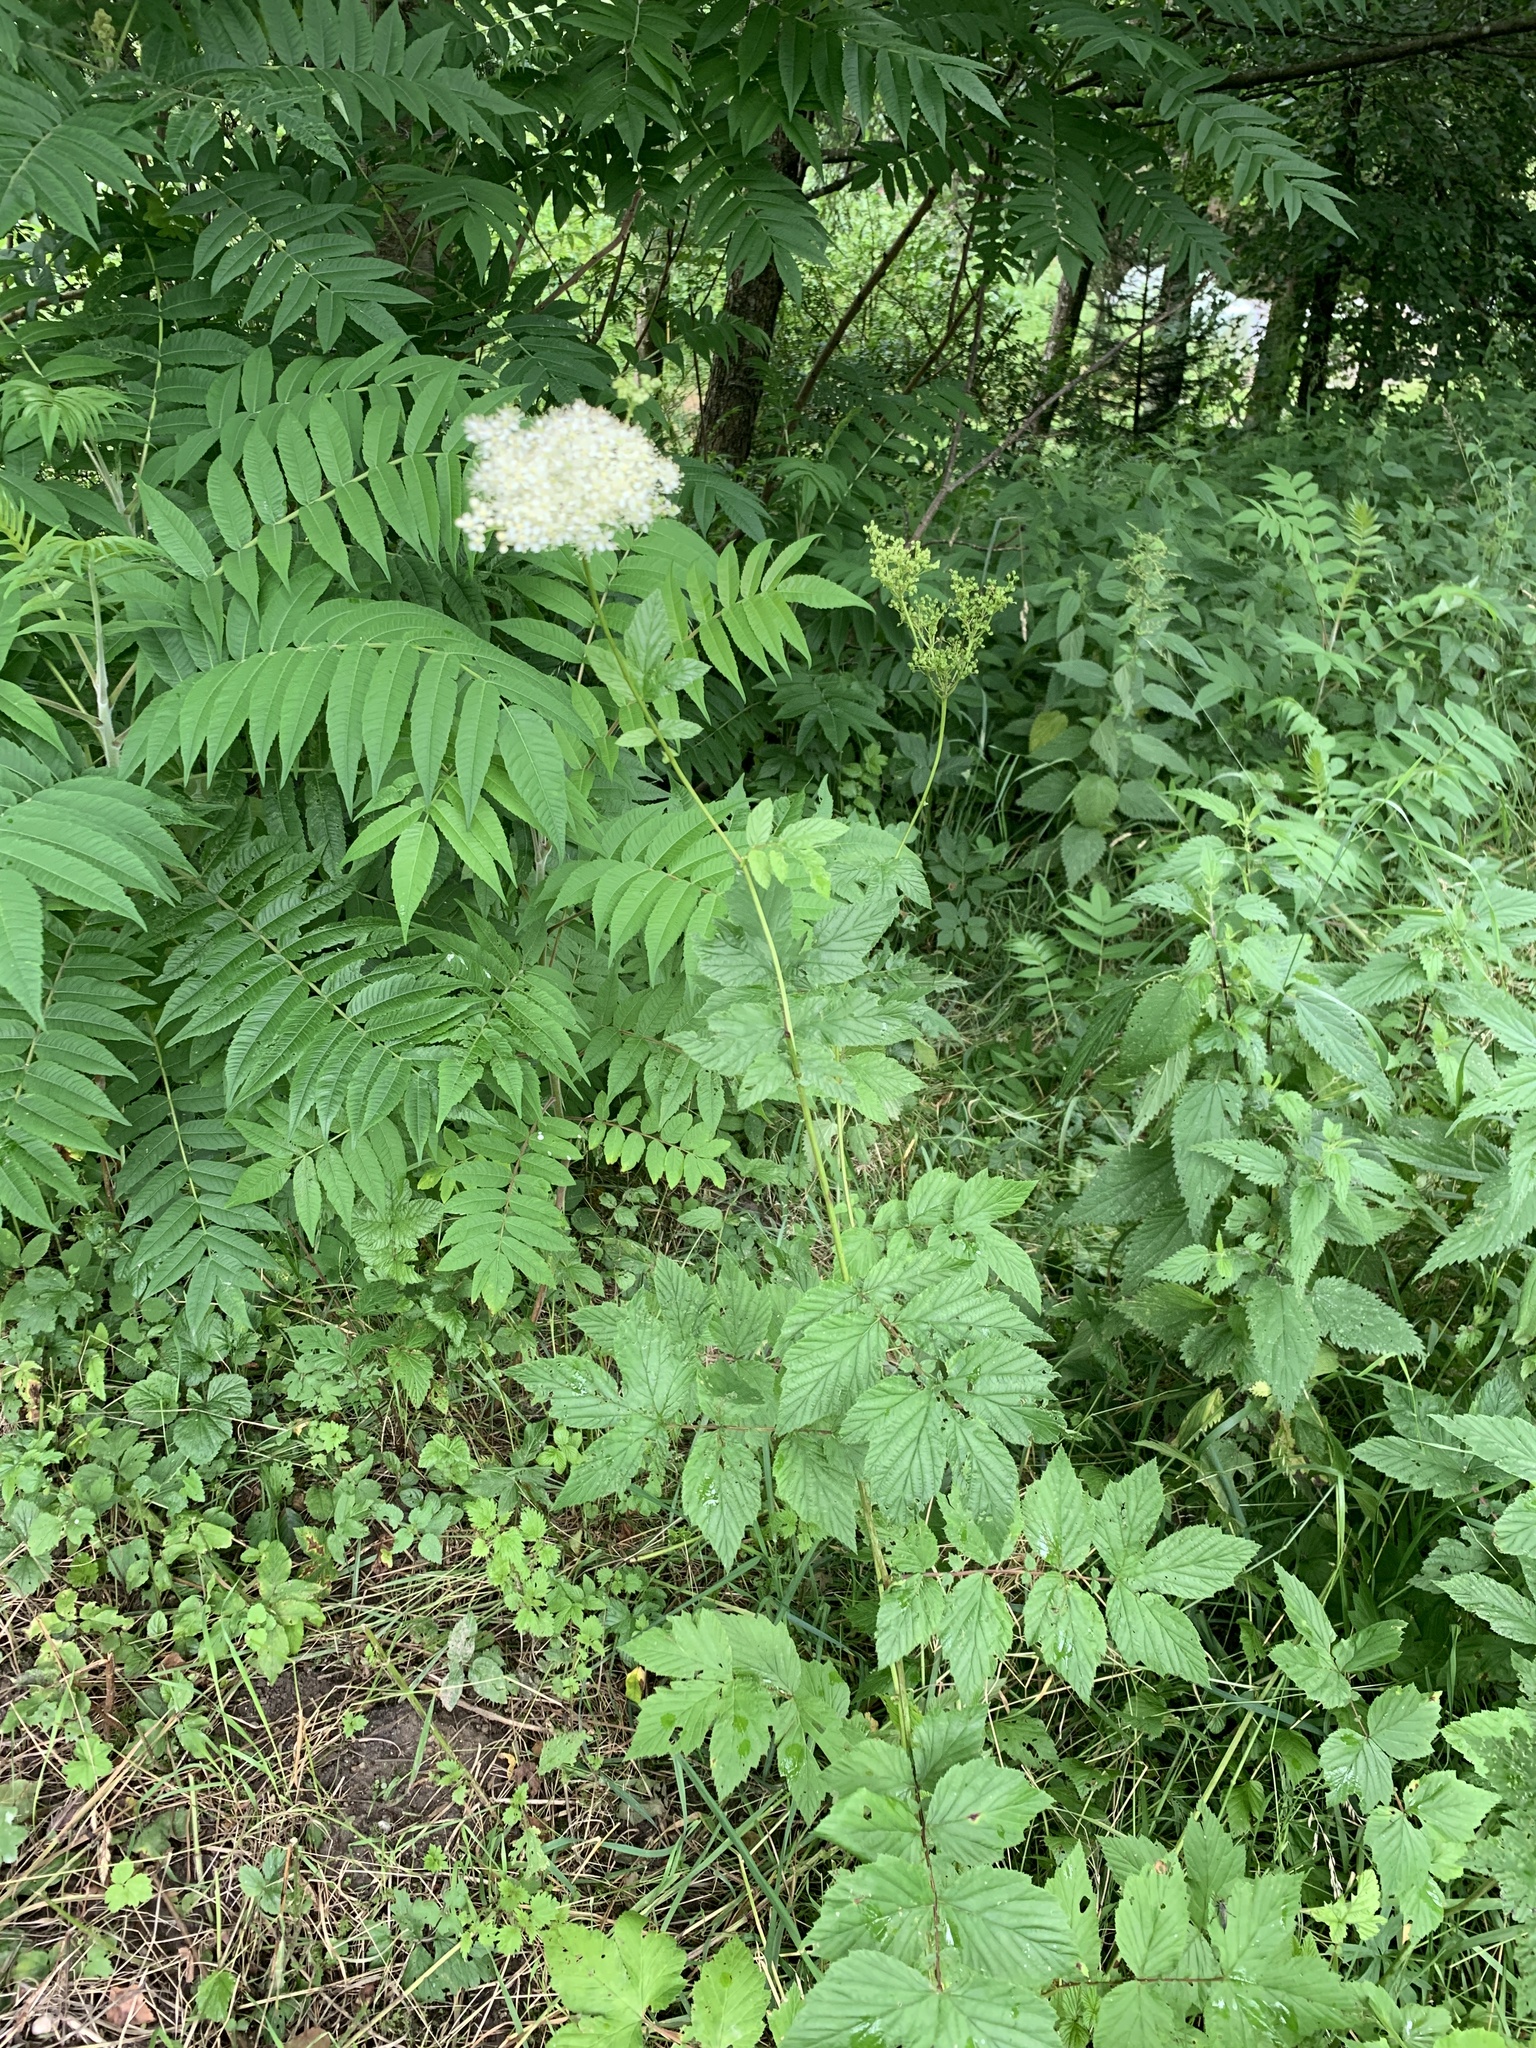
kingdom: Plantae
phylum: Tracheophyta
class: Magnoliopsida
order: Rosales
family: Rosaceae
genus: Filipendula
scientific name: Filipendula ulmaria
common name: Meadowsweet
